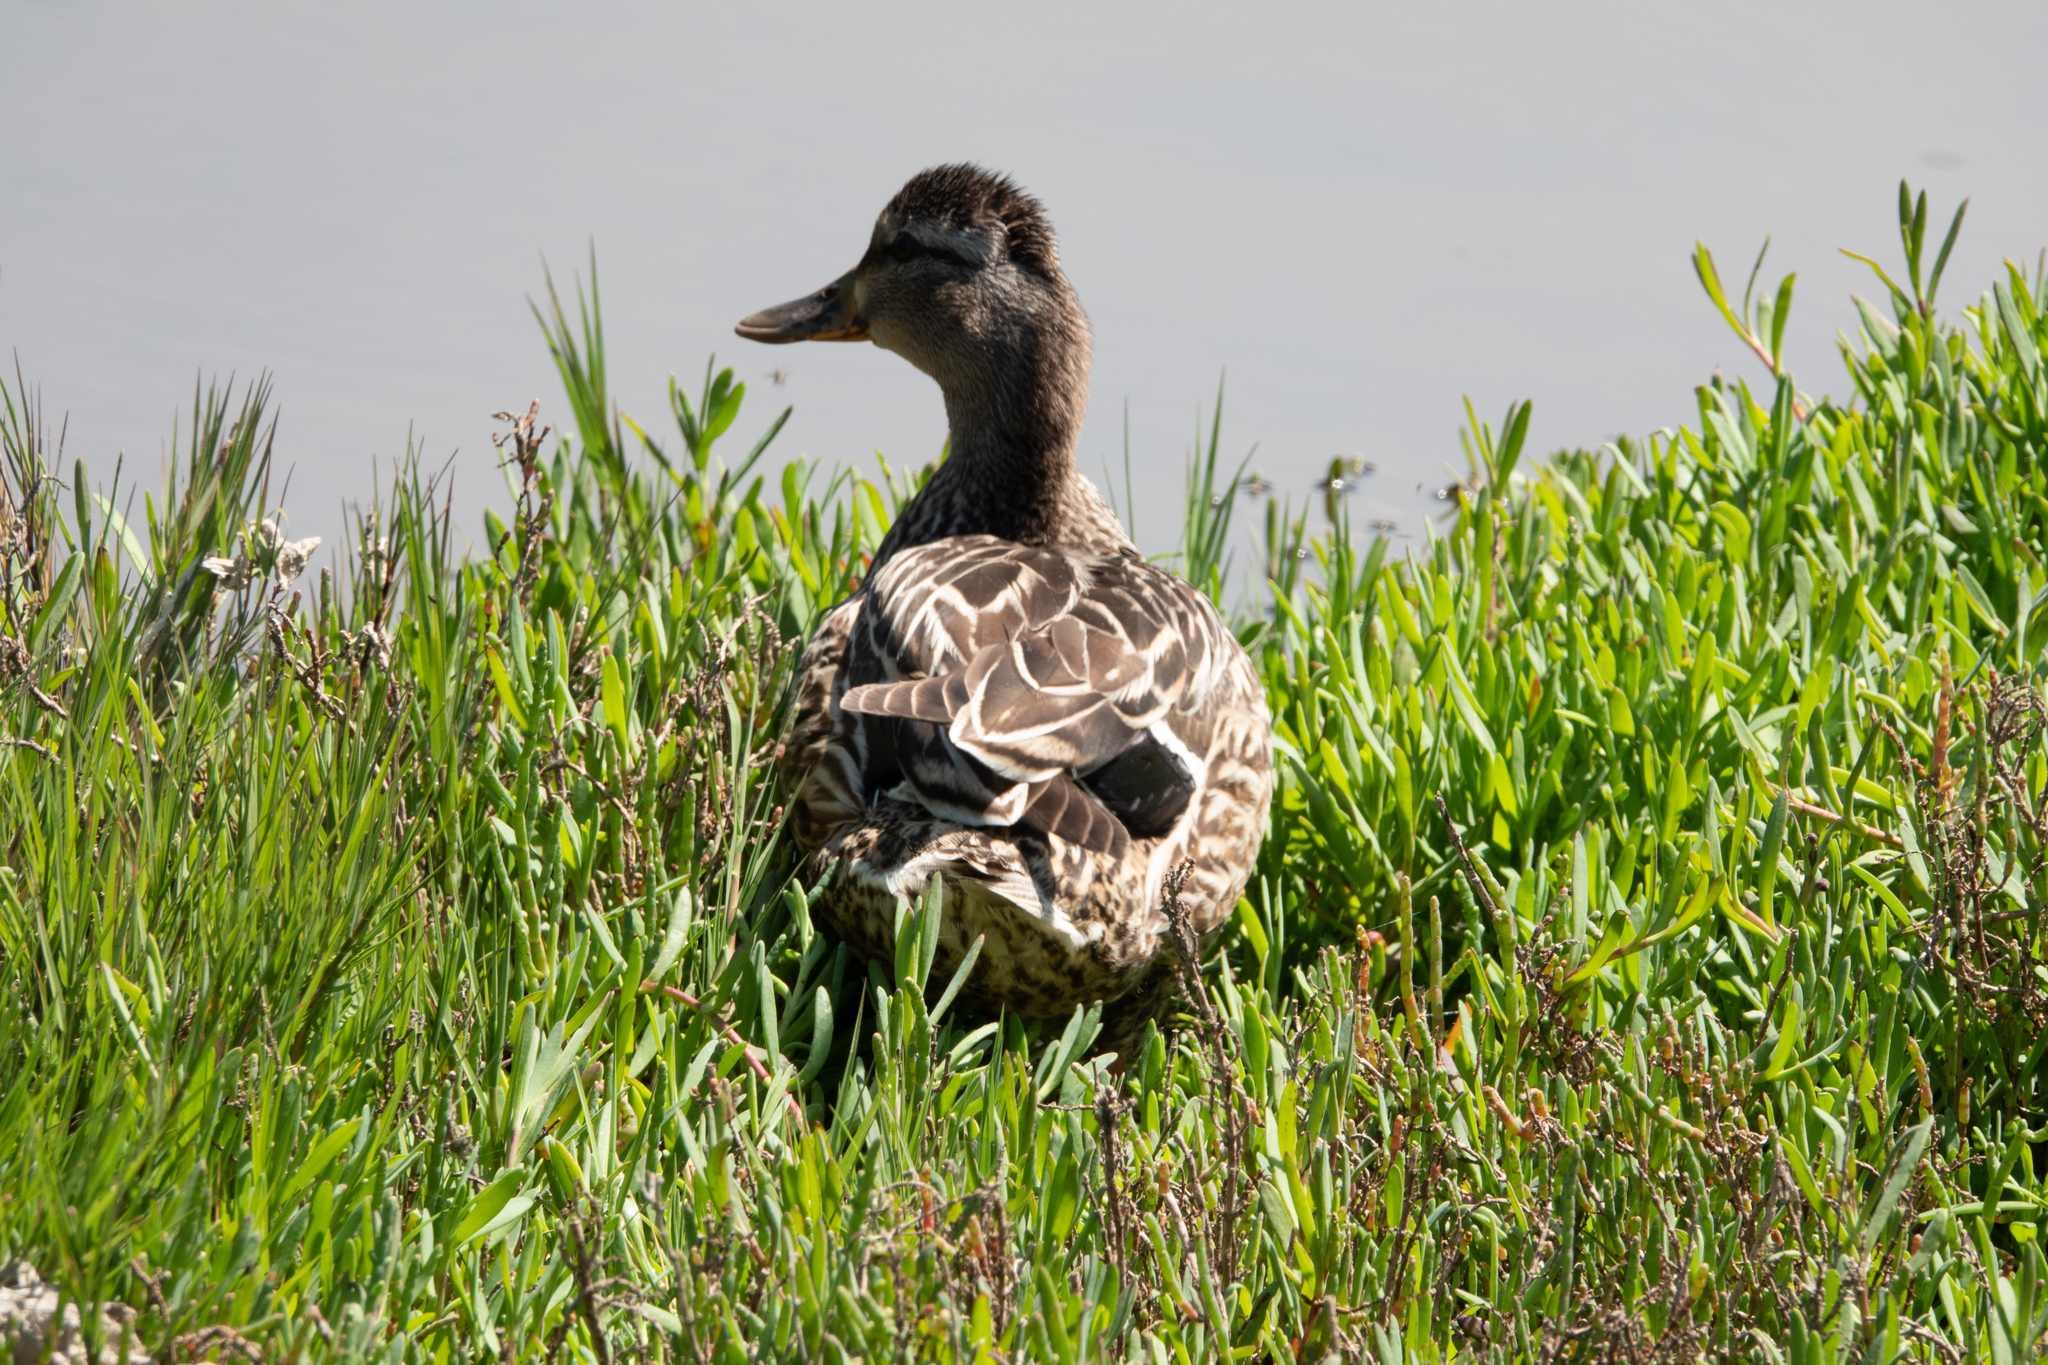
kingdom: Animalia
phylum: Chordata
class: Aves
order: Anseriformes
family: Anatidae
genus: Anas
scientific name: Anas platyrhynchos
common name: Mallard
